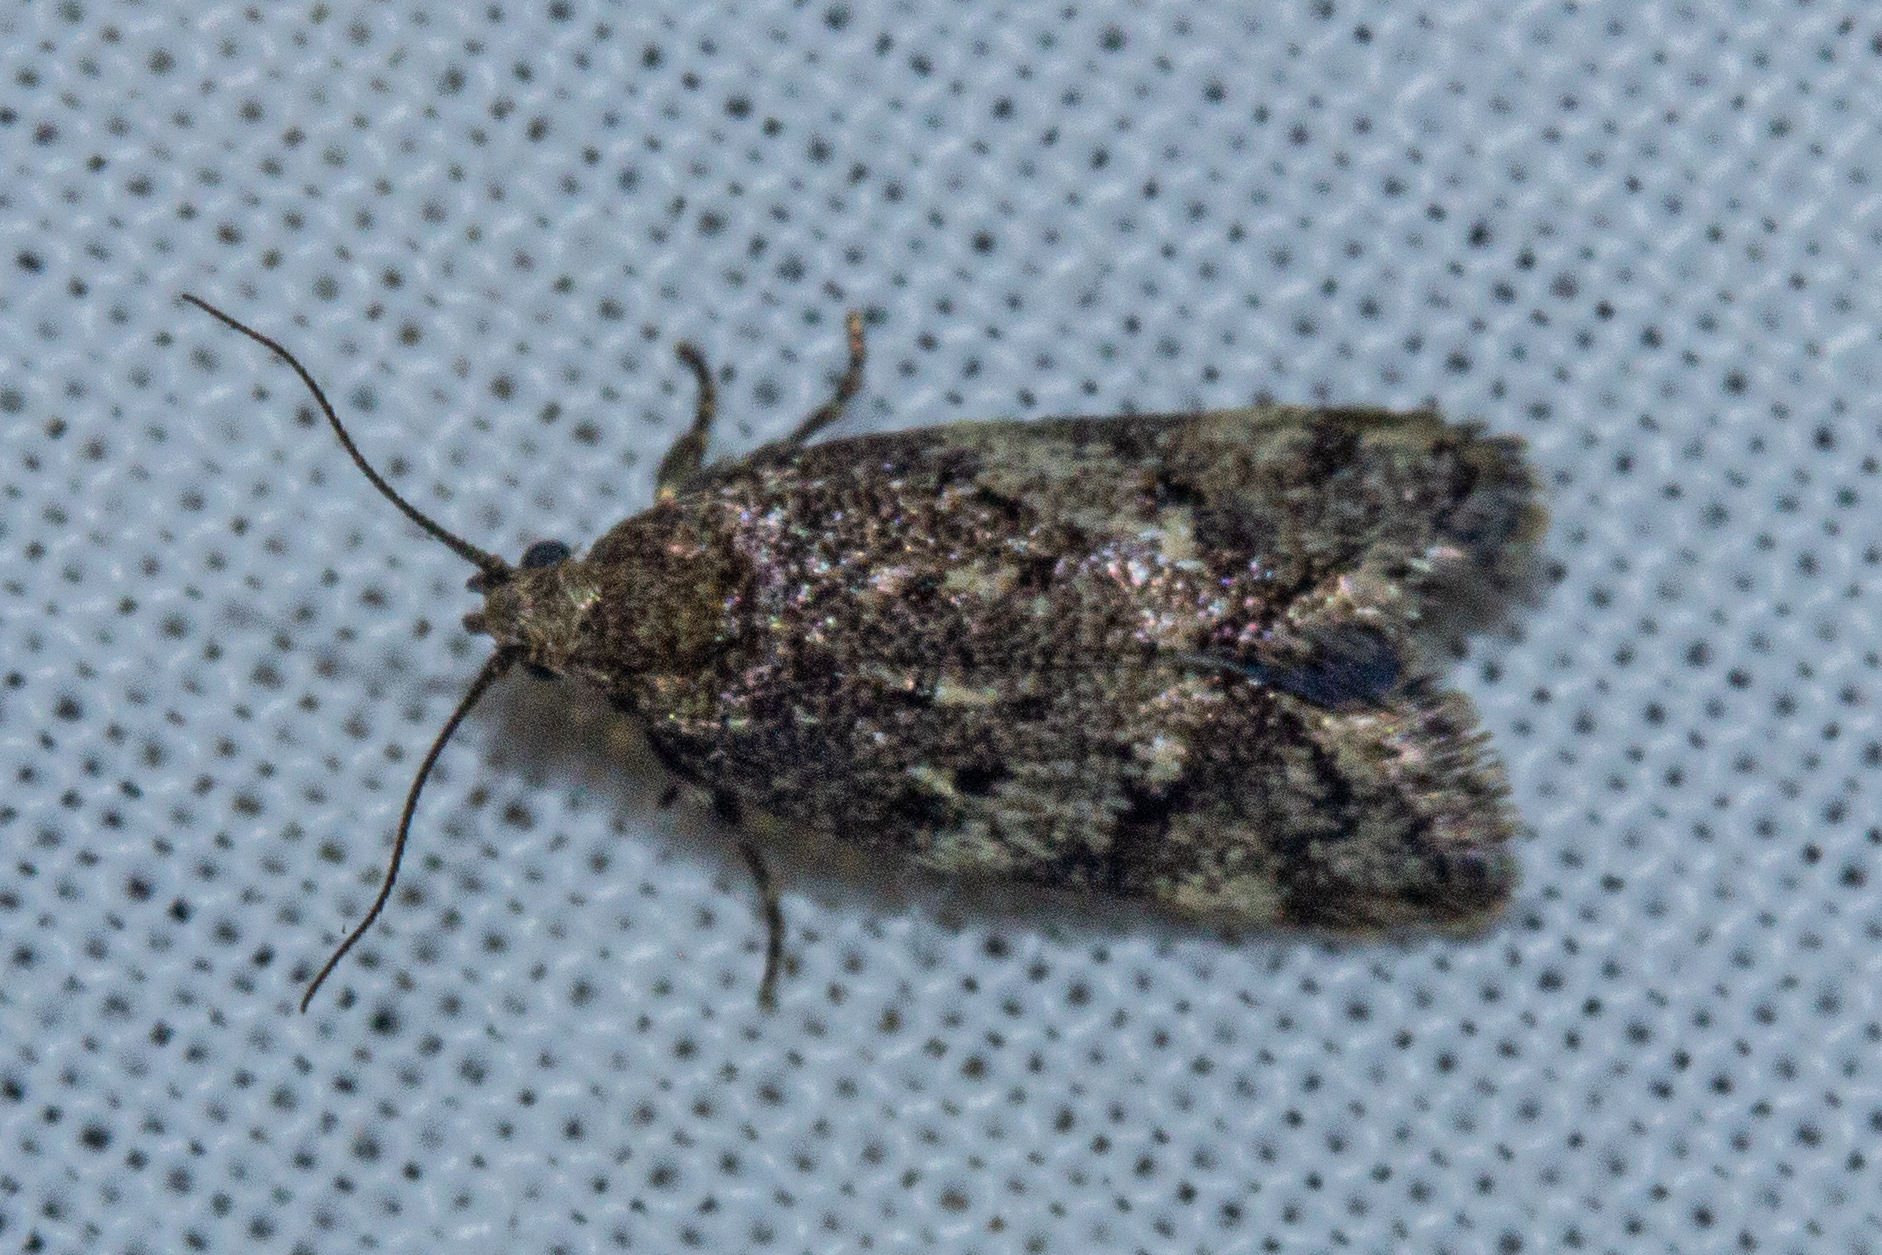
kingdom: Animalia
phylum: Arthropoda
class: Insecta
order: Lepidoptera
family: Oecophoridae
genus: Trachypepla
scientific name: Trachypepla anastrella
